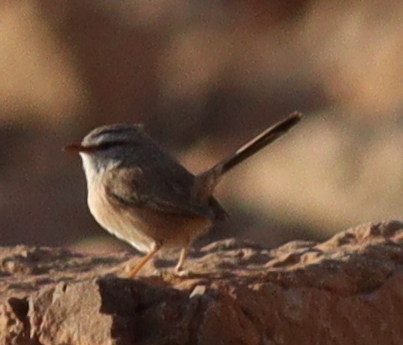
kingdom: Animalia
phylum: Chordata
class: Aves
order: Passeriformes
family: Scotocercidae
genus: Scotocerca
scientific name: Scotocerca inquieta
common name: Scrub warbler
